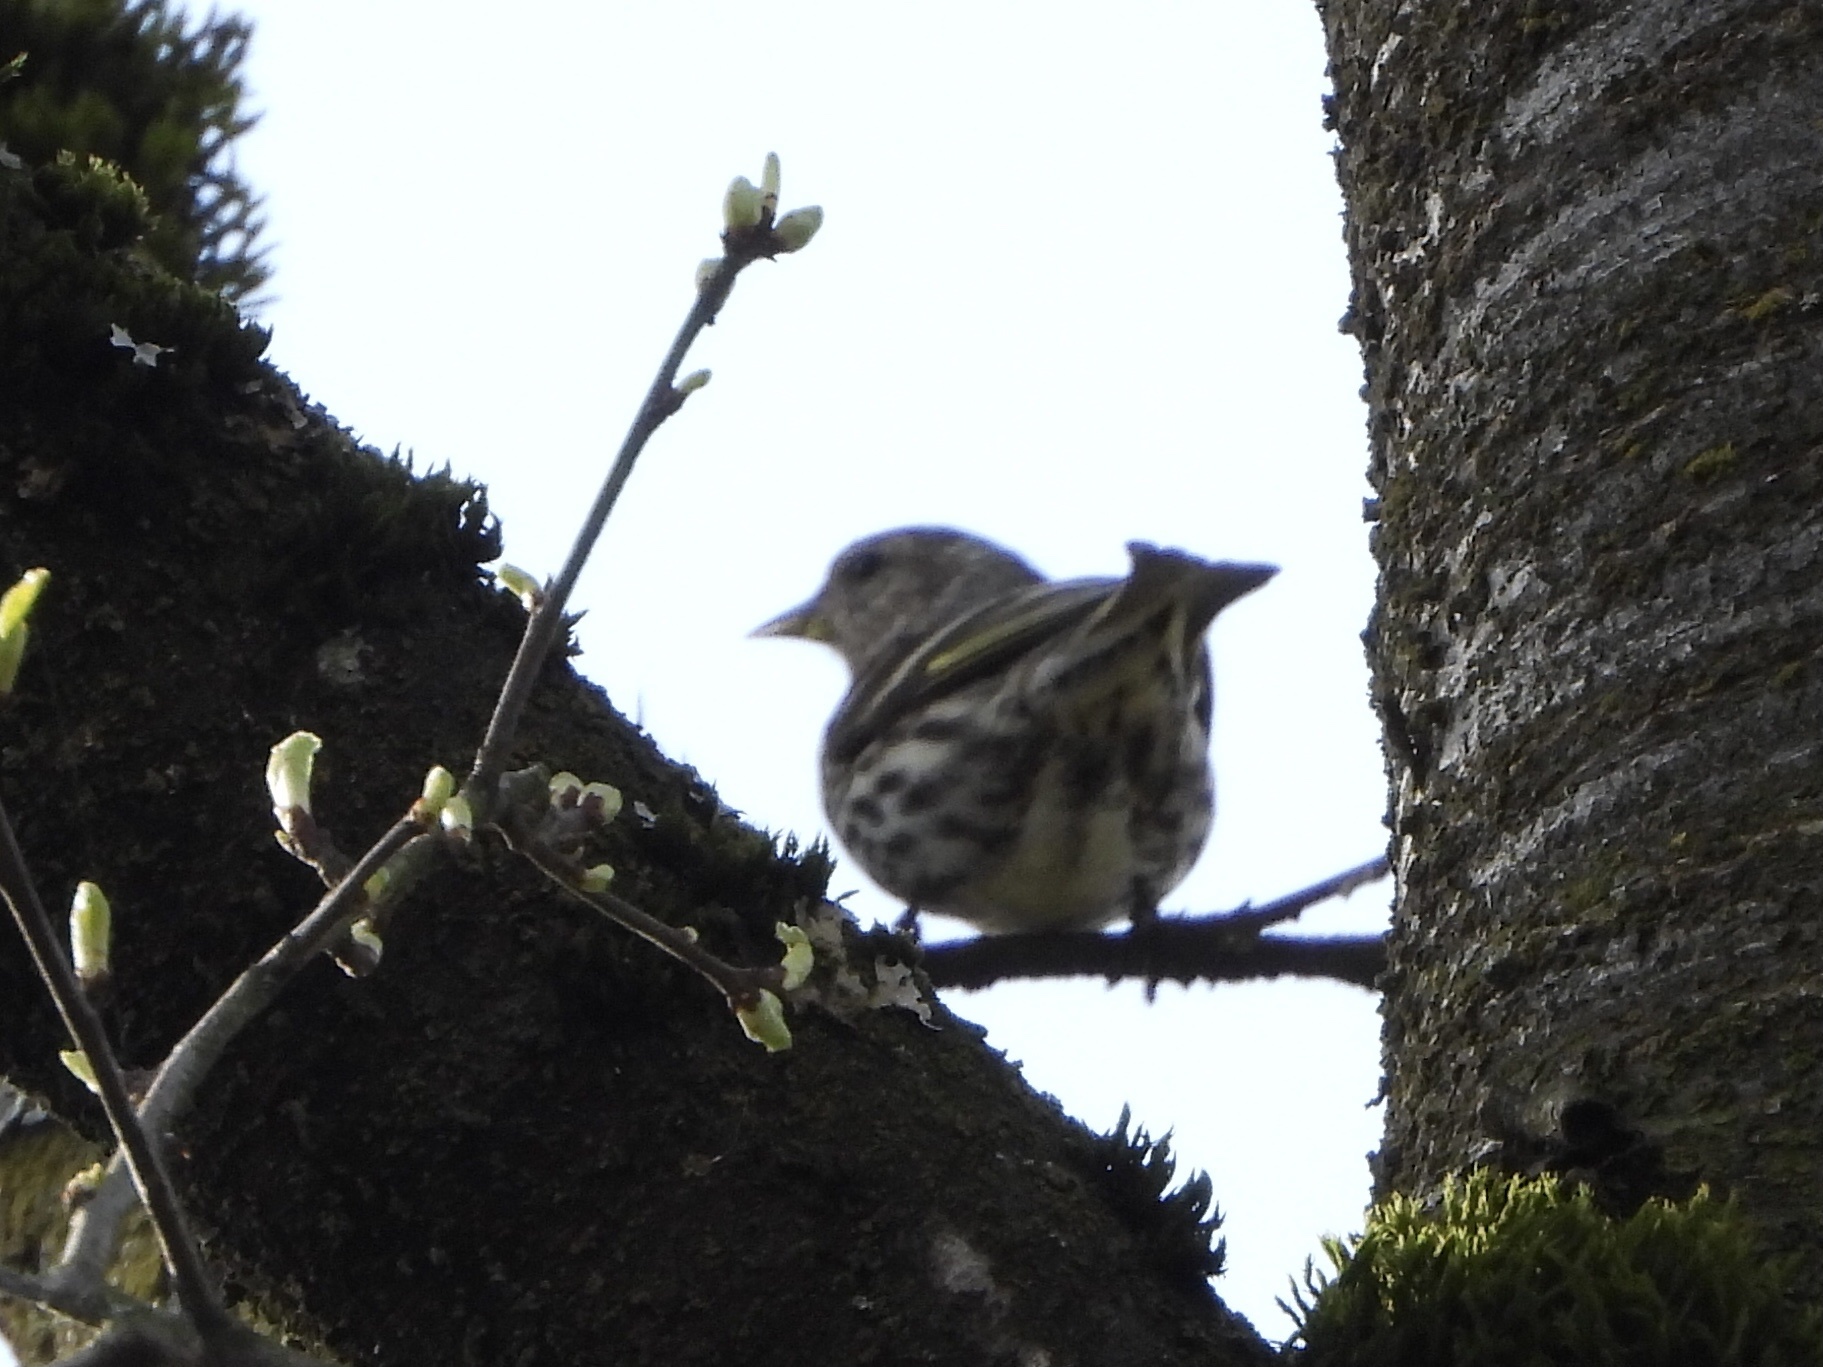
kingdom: Animalia
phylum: Chordata
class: Aves
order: Passeriformes
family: Fringillidae
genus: Spinus
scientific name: Spinus pinus
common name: Pine siskin
